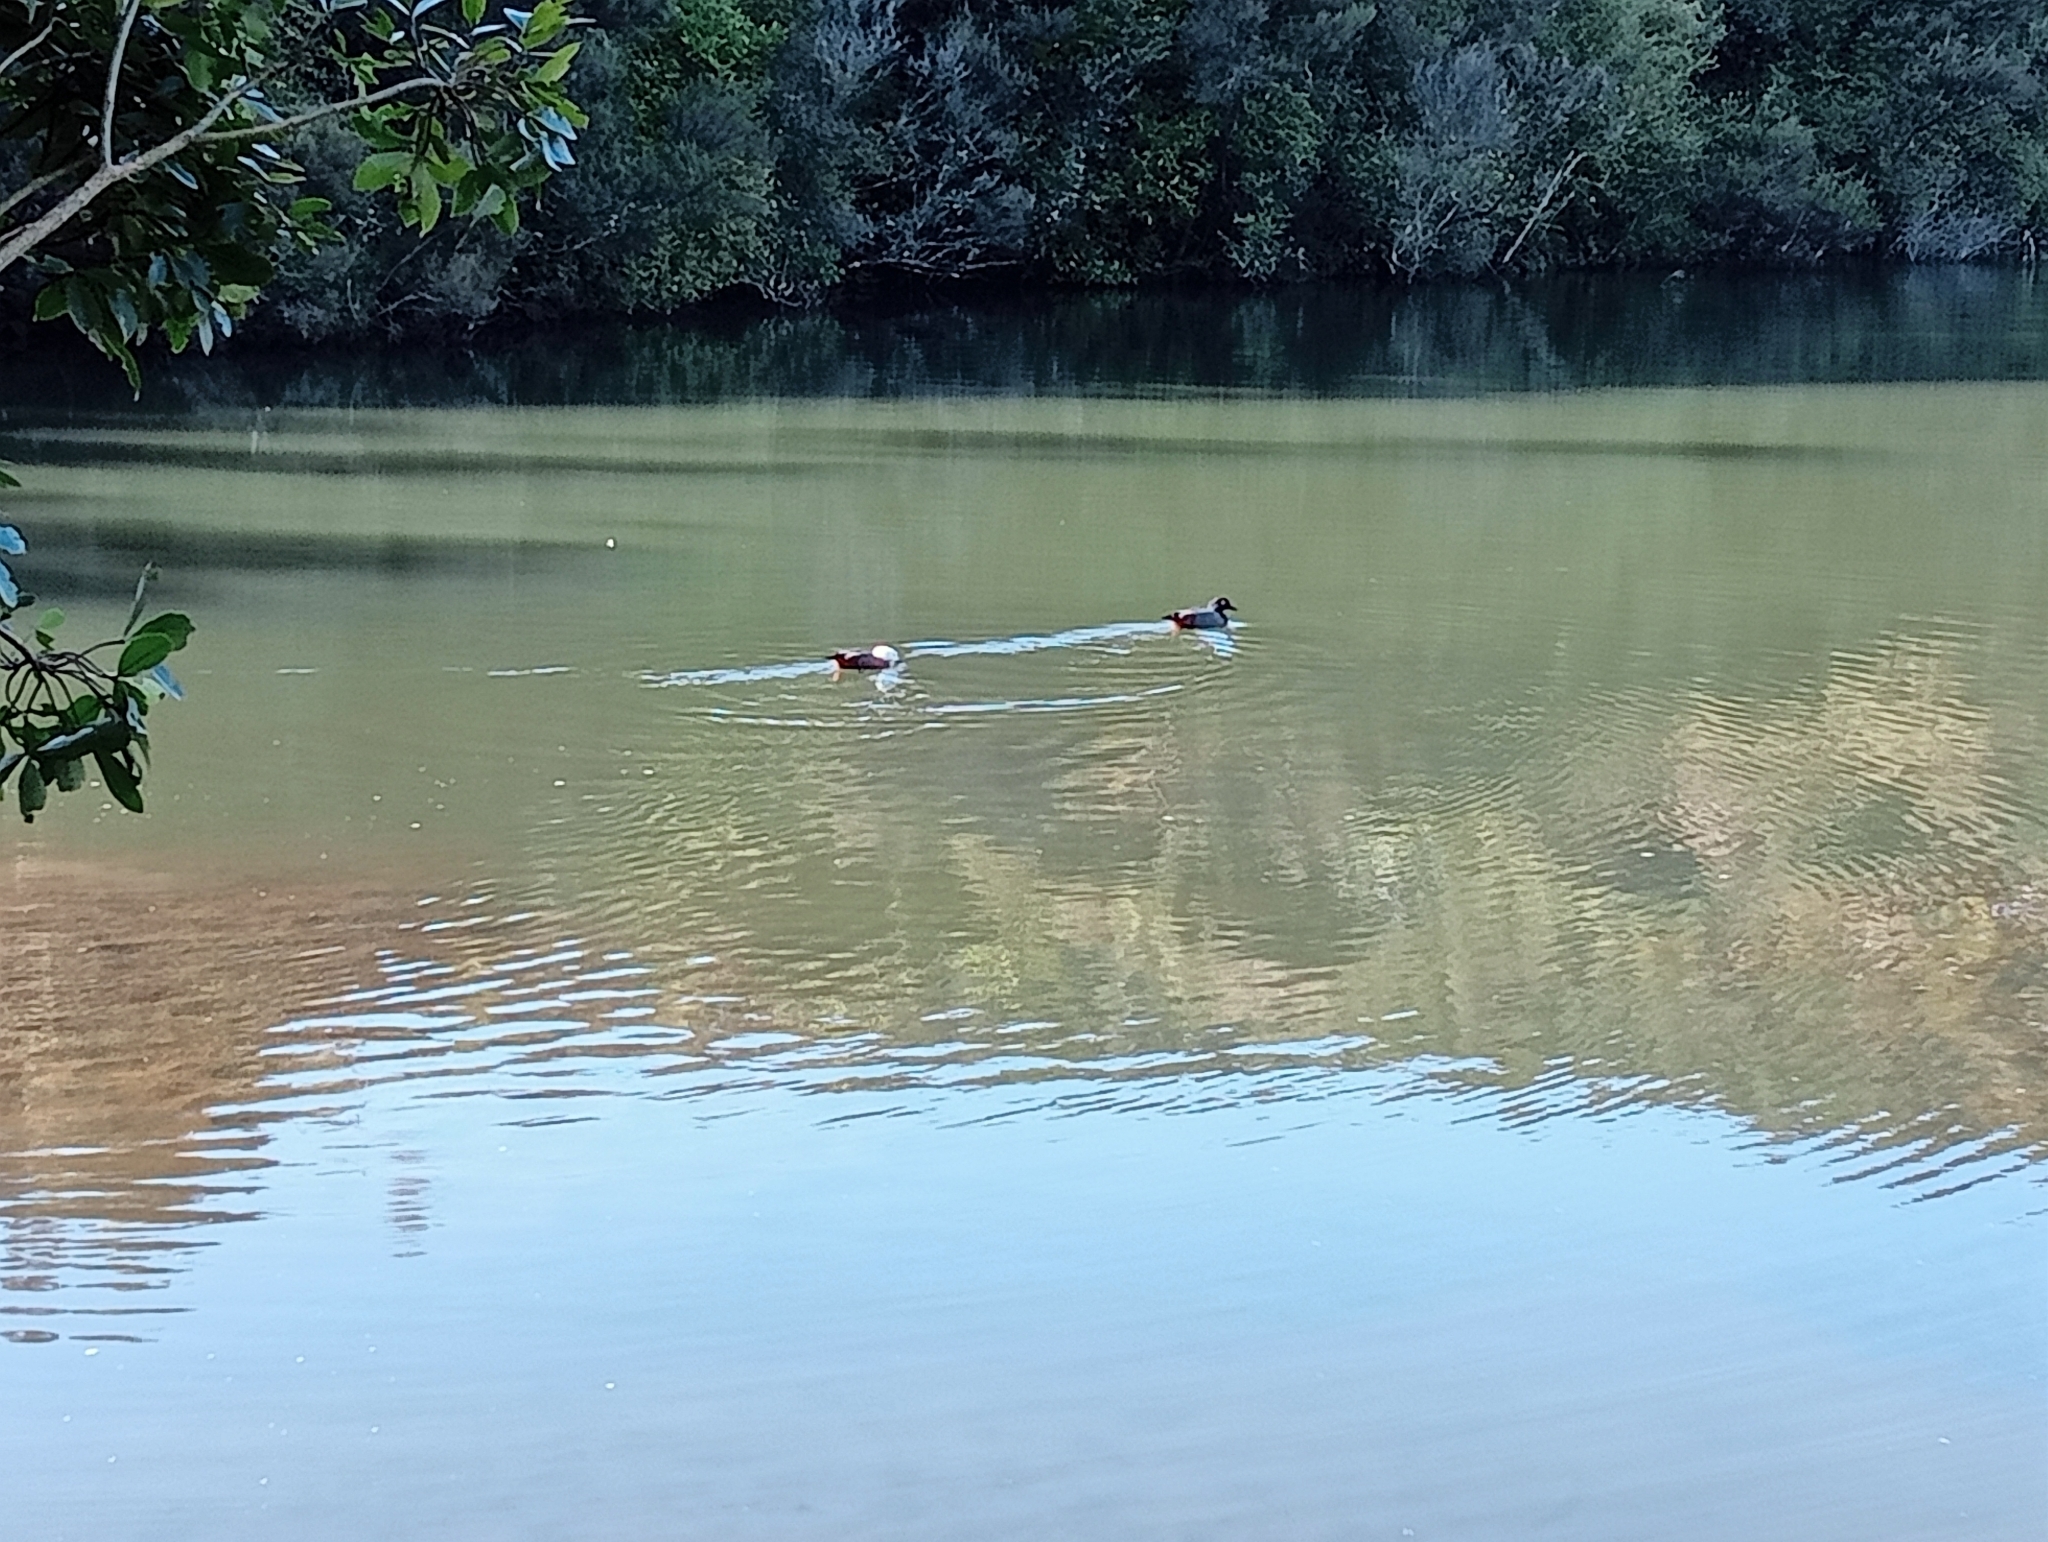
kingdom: Animalia
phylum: Chordata
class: Aves
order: Anseriformes
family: Anatidae
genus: Tadorna
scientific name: Tadorna variegata
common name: Paradise shelduck
